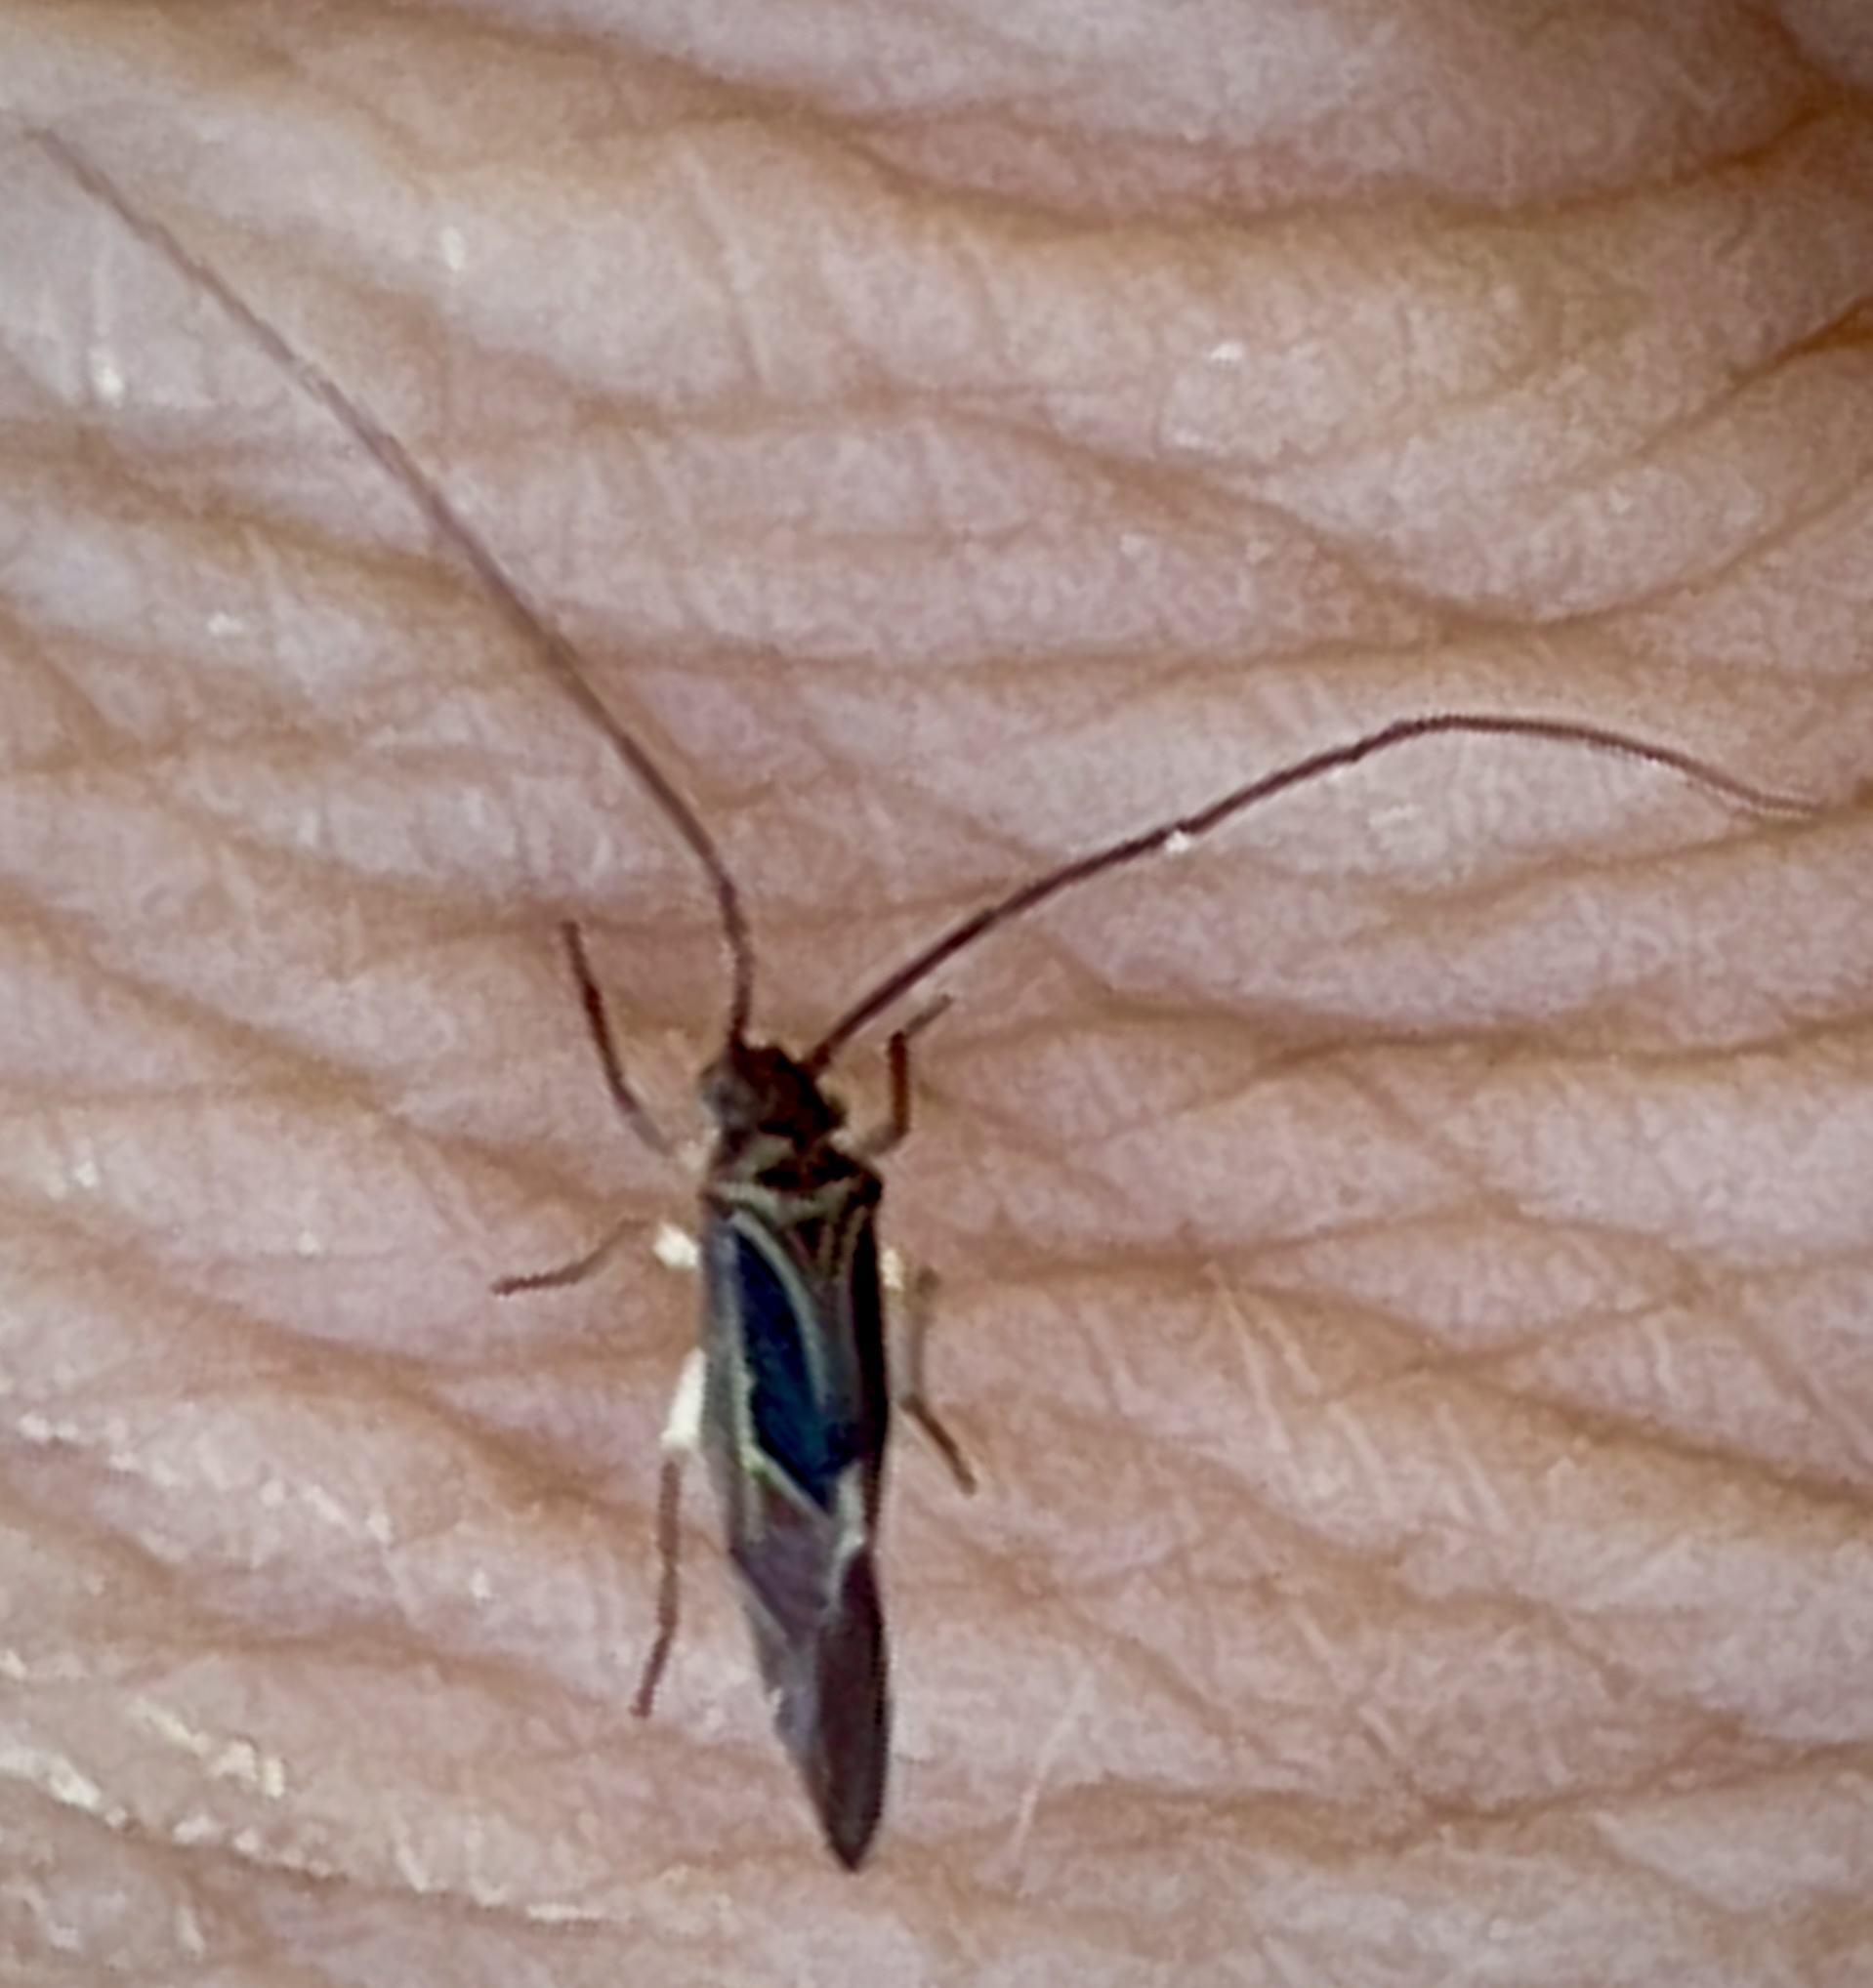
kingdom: Animalia
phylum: Arthropoda
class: Insecta
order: Psocodea
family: Psocidae
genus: Cerastipsocus
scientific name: Cerastipsocus venosus
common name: Tree cattle
